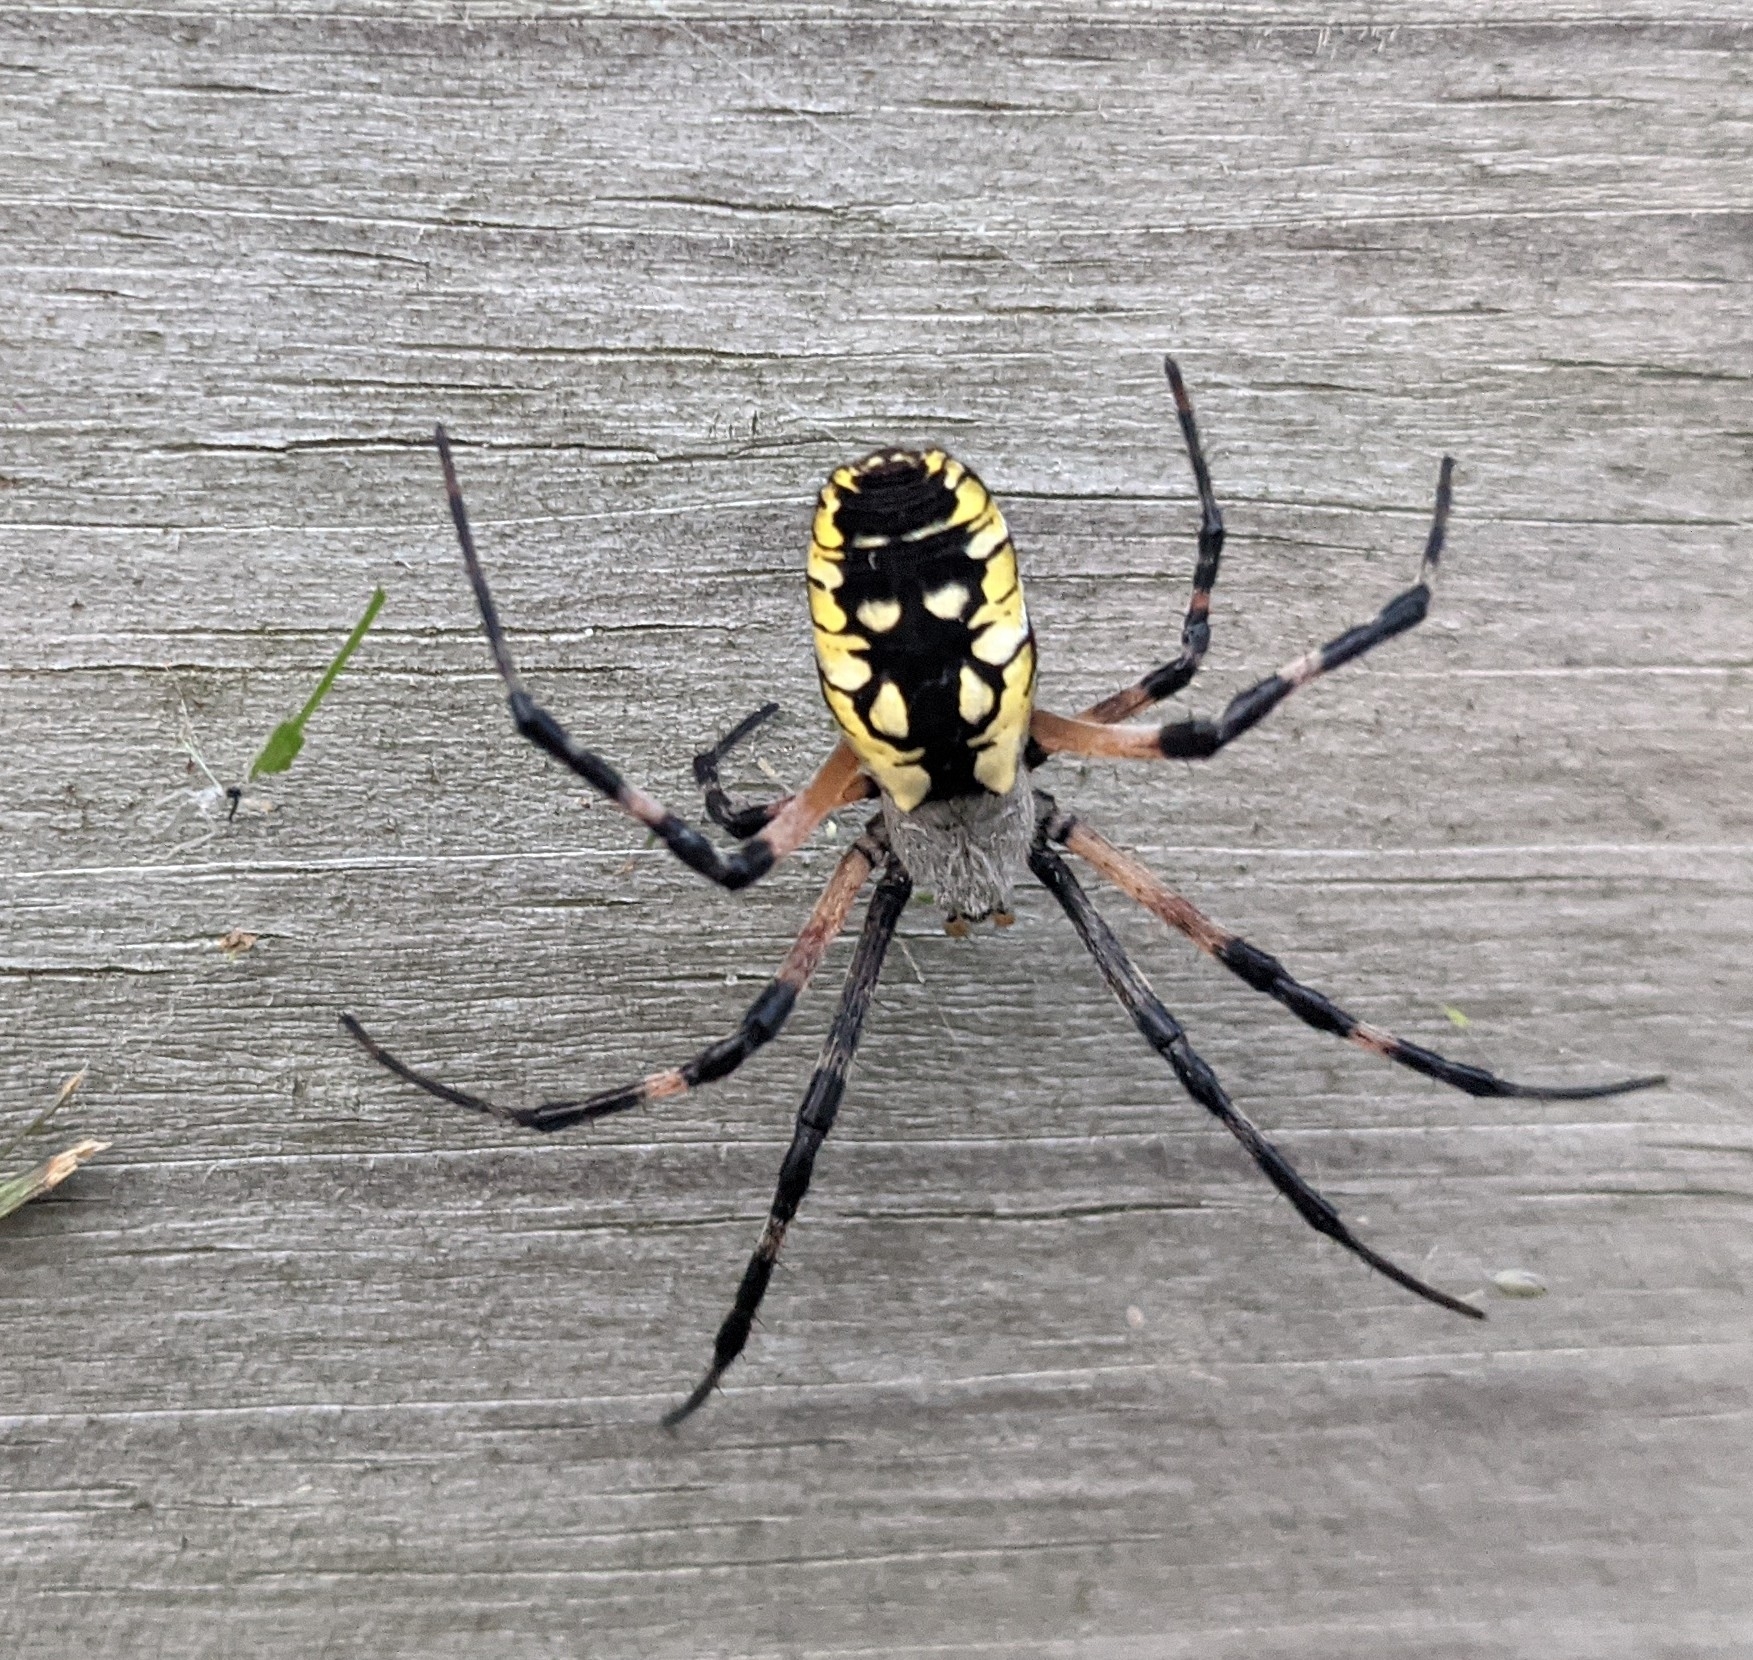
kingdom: Animalia
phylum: Arthropoda
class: Arachnida
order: Araneae
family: Araneidae
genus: Argiope
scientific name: Argiope aurantia
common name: Orb weavers
